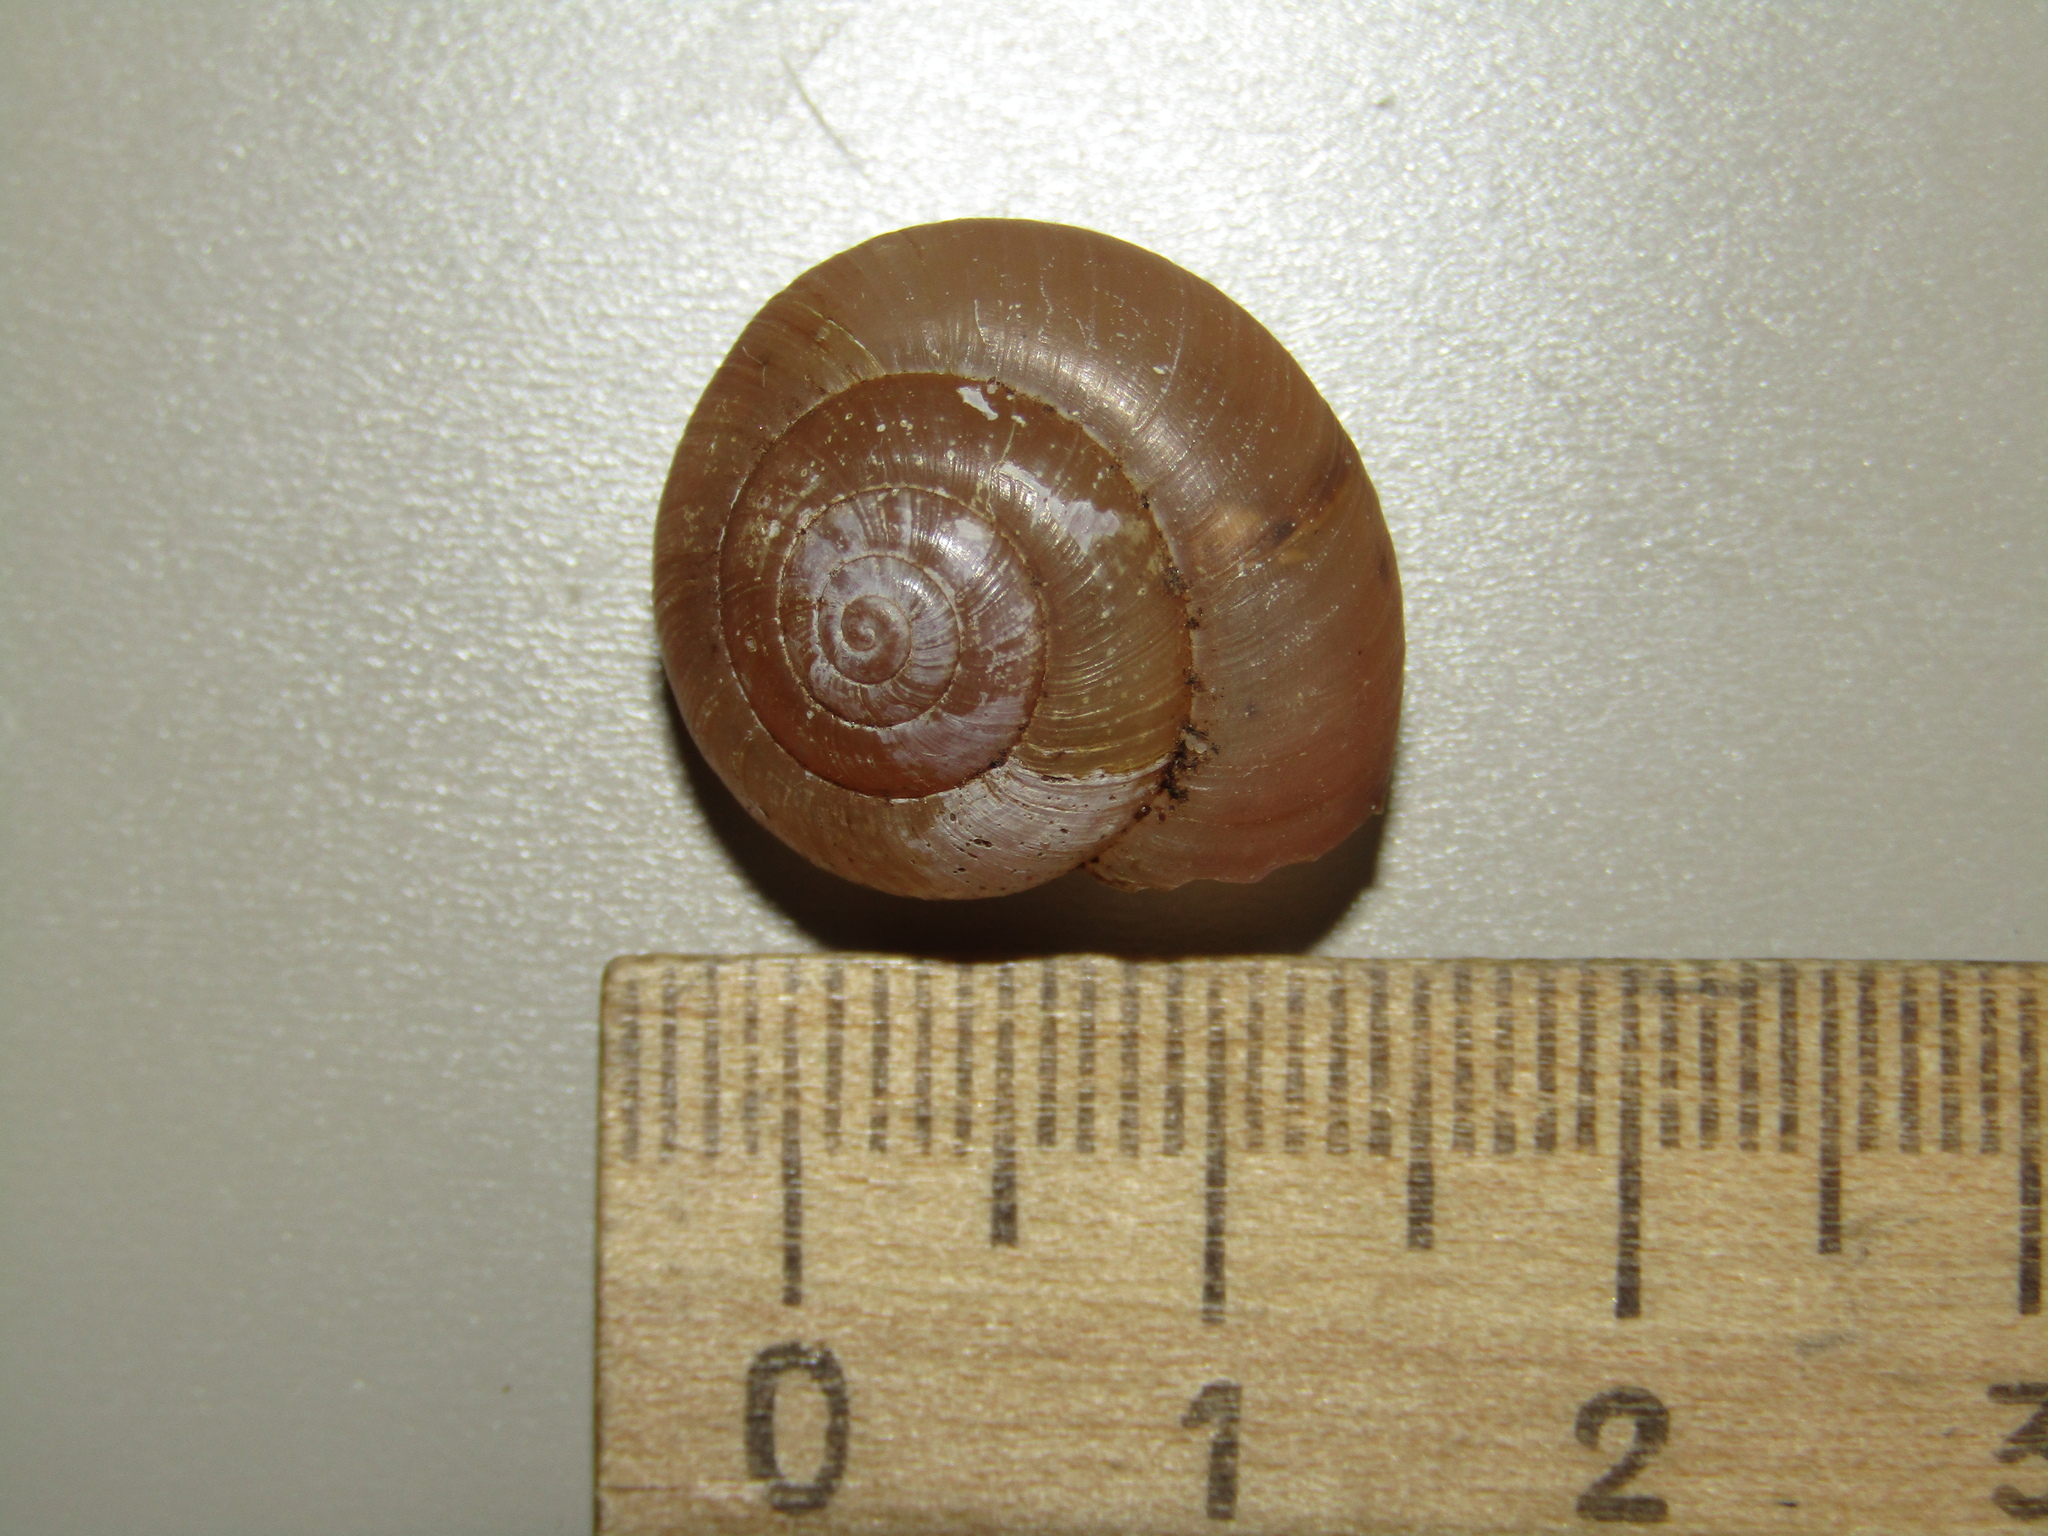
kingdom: Animalia
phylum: Mollusca
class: Gastropoda
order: Stylommatophora
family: Camaenidae
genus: Fruticicola
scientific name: Fruticicola fruticum
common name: Bush snail
